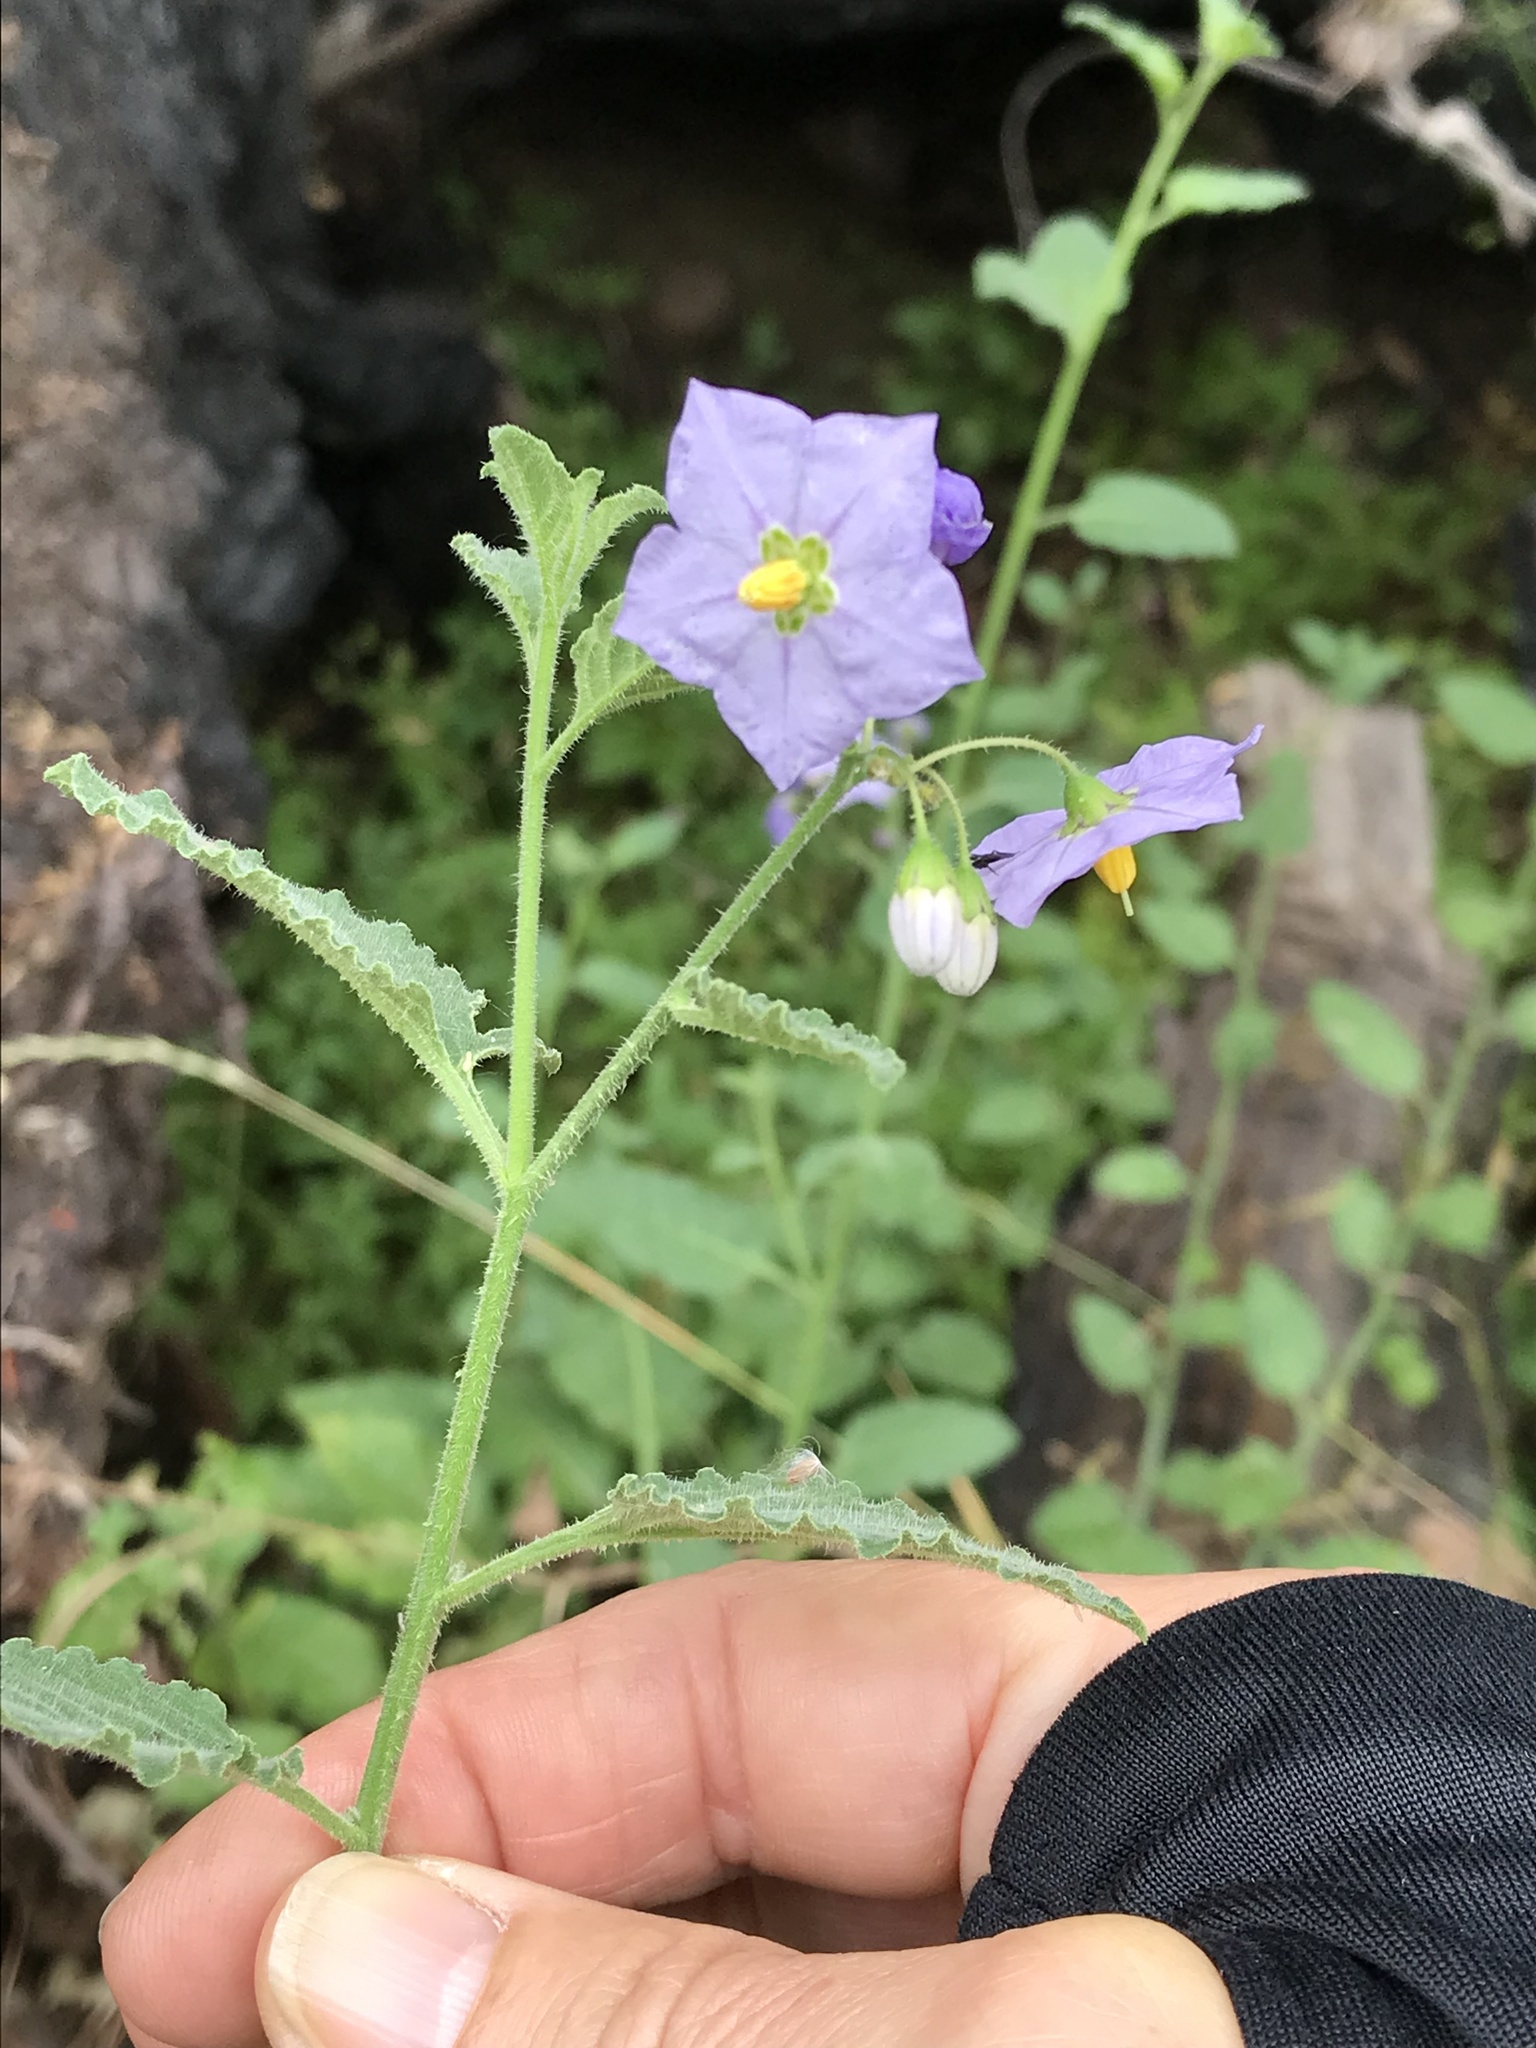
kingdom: Plantae
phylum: Tracheophyta
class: Magnoliopsida
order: Solanales
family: Solanaceae
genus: Solanum
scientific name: Solanum umbelliferum
